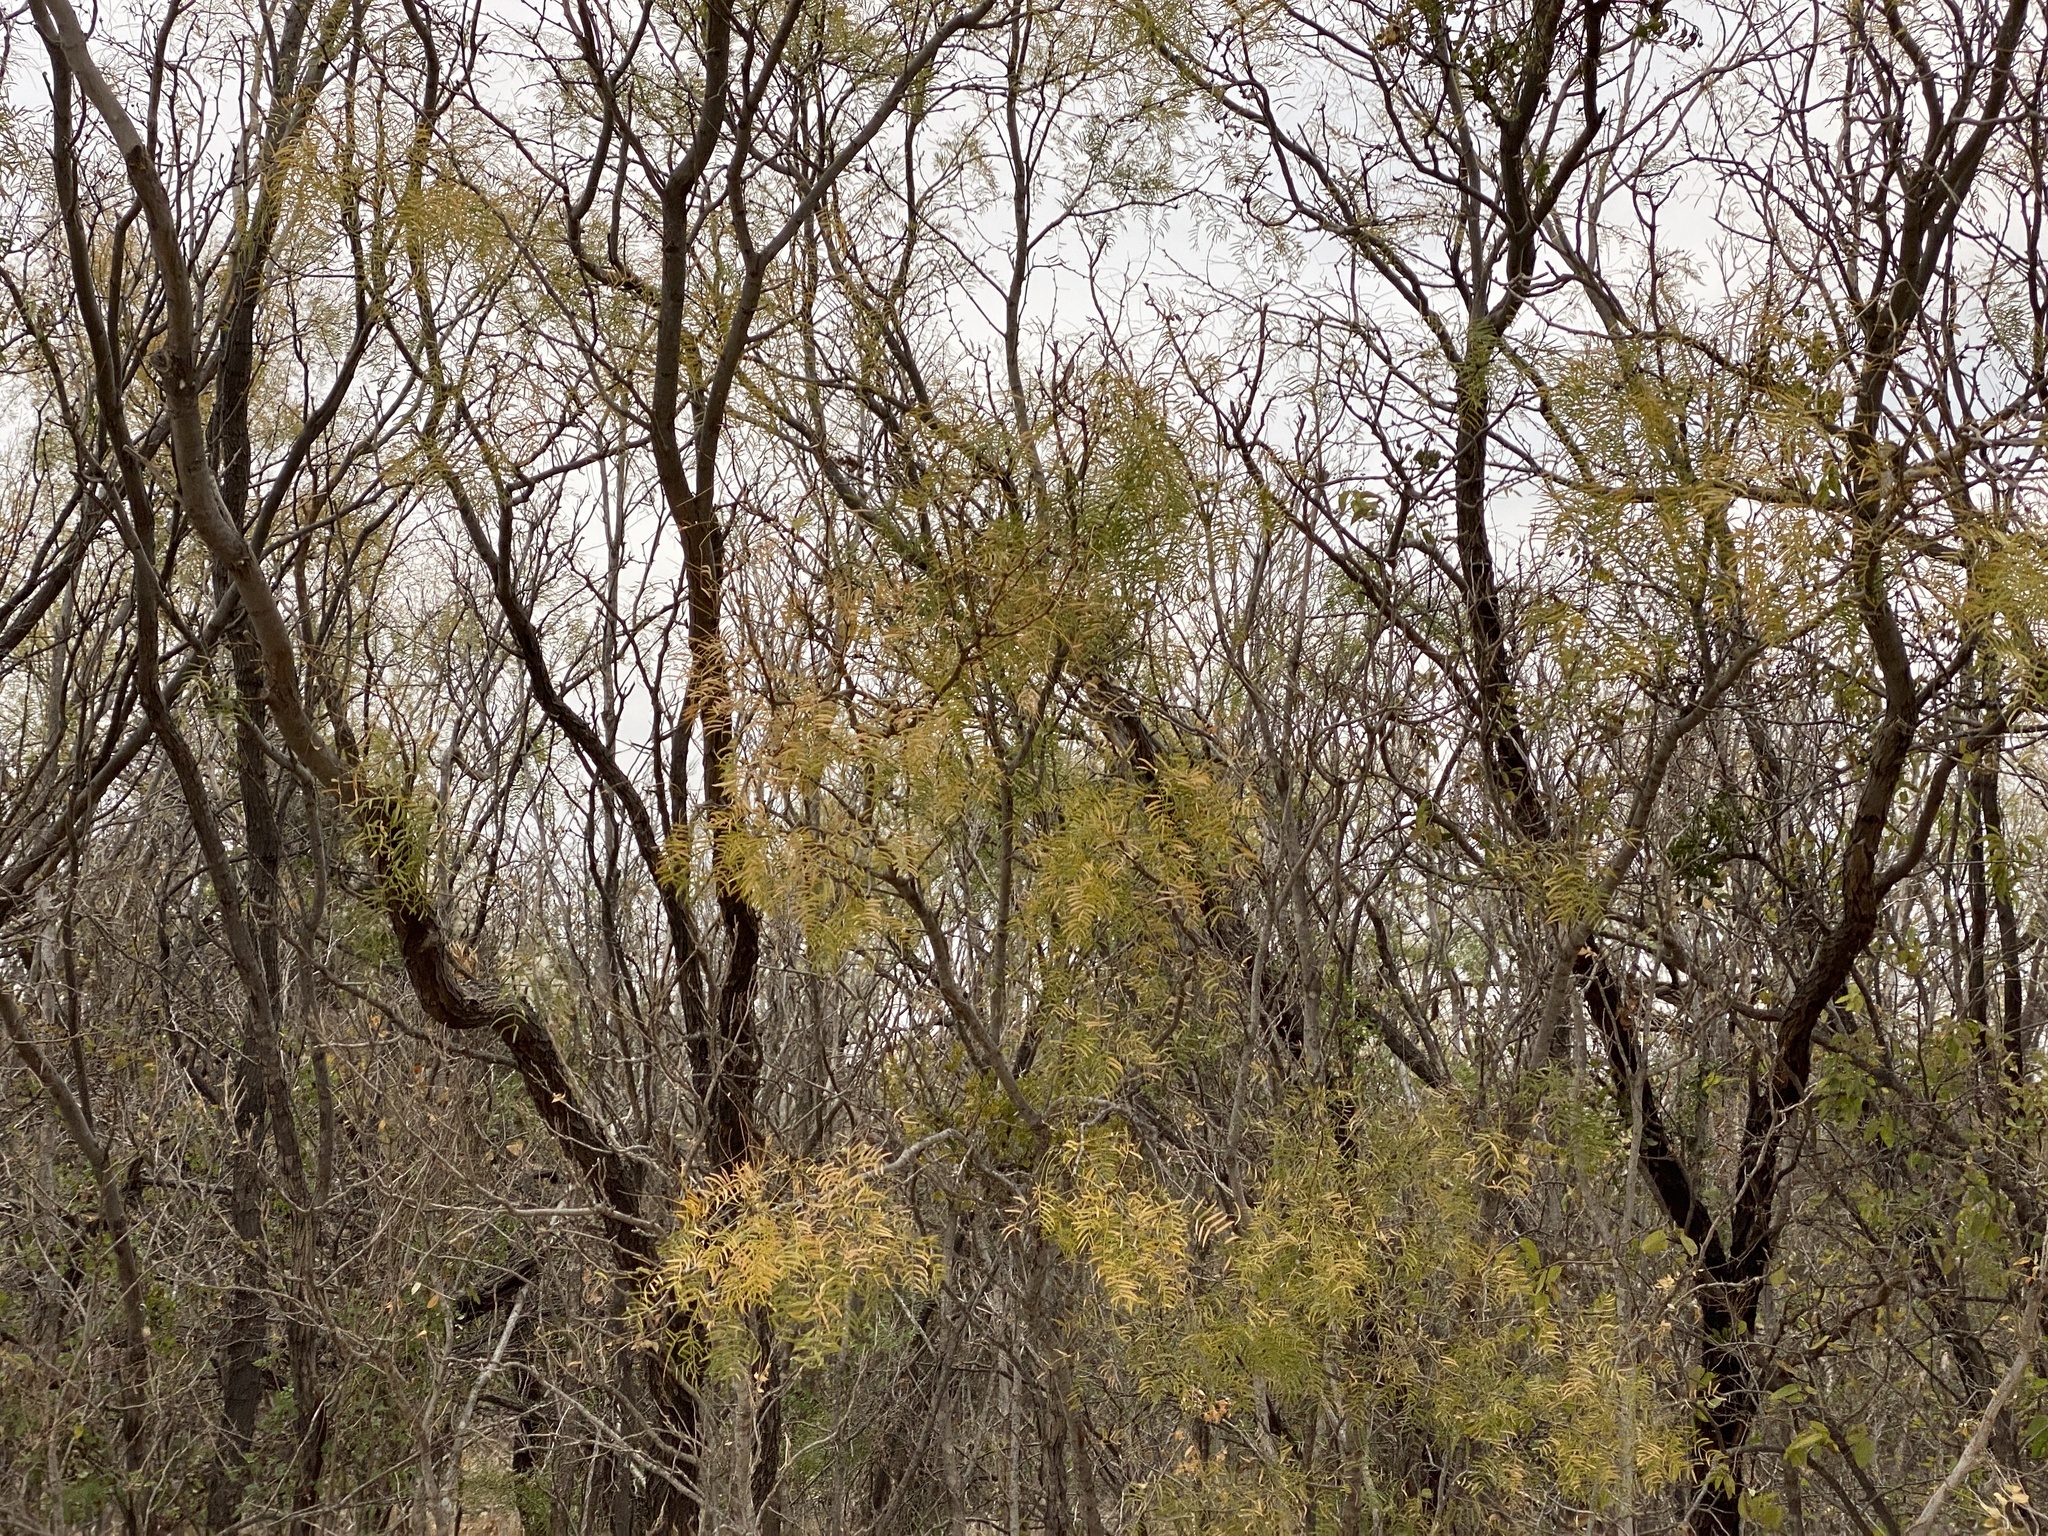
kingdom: Plantae
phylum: Tracheophyta
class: Magnoliopsida
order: Fabales
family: Fabaceae
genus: Prosopis
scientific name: Prosopis glandulosa
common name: Honey mesquite
